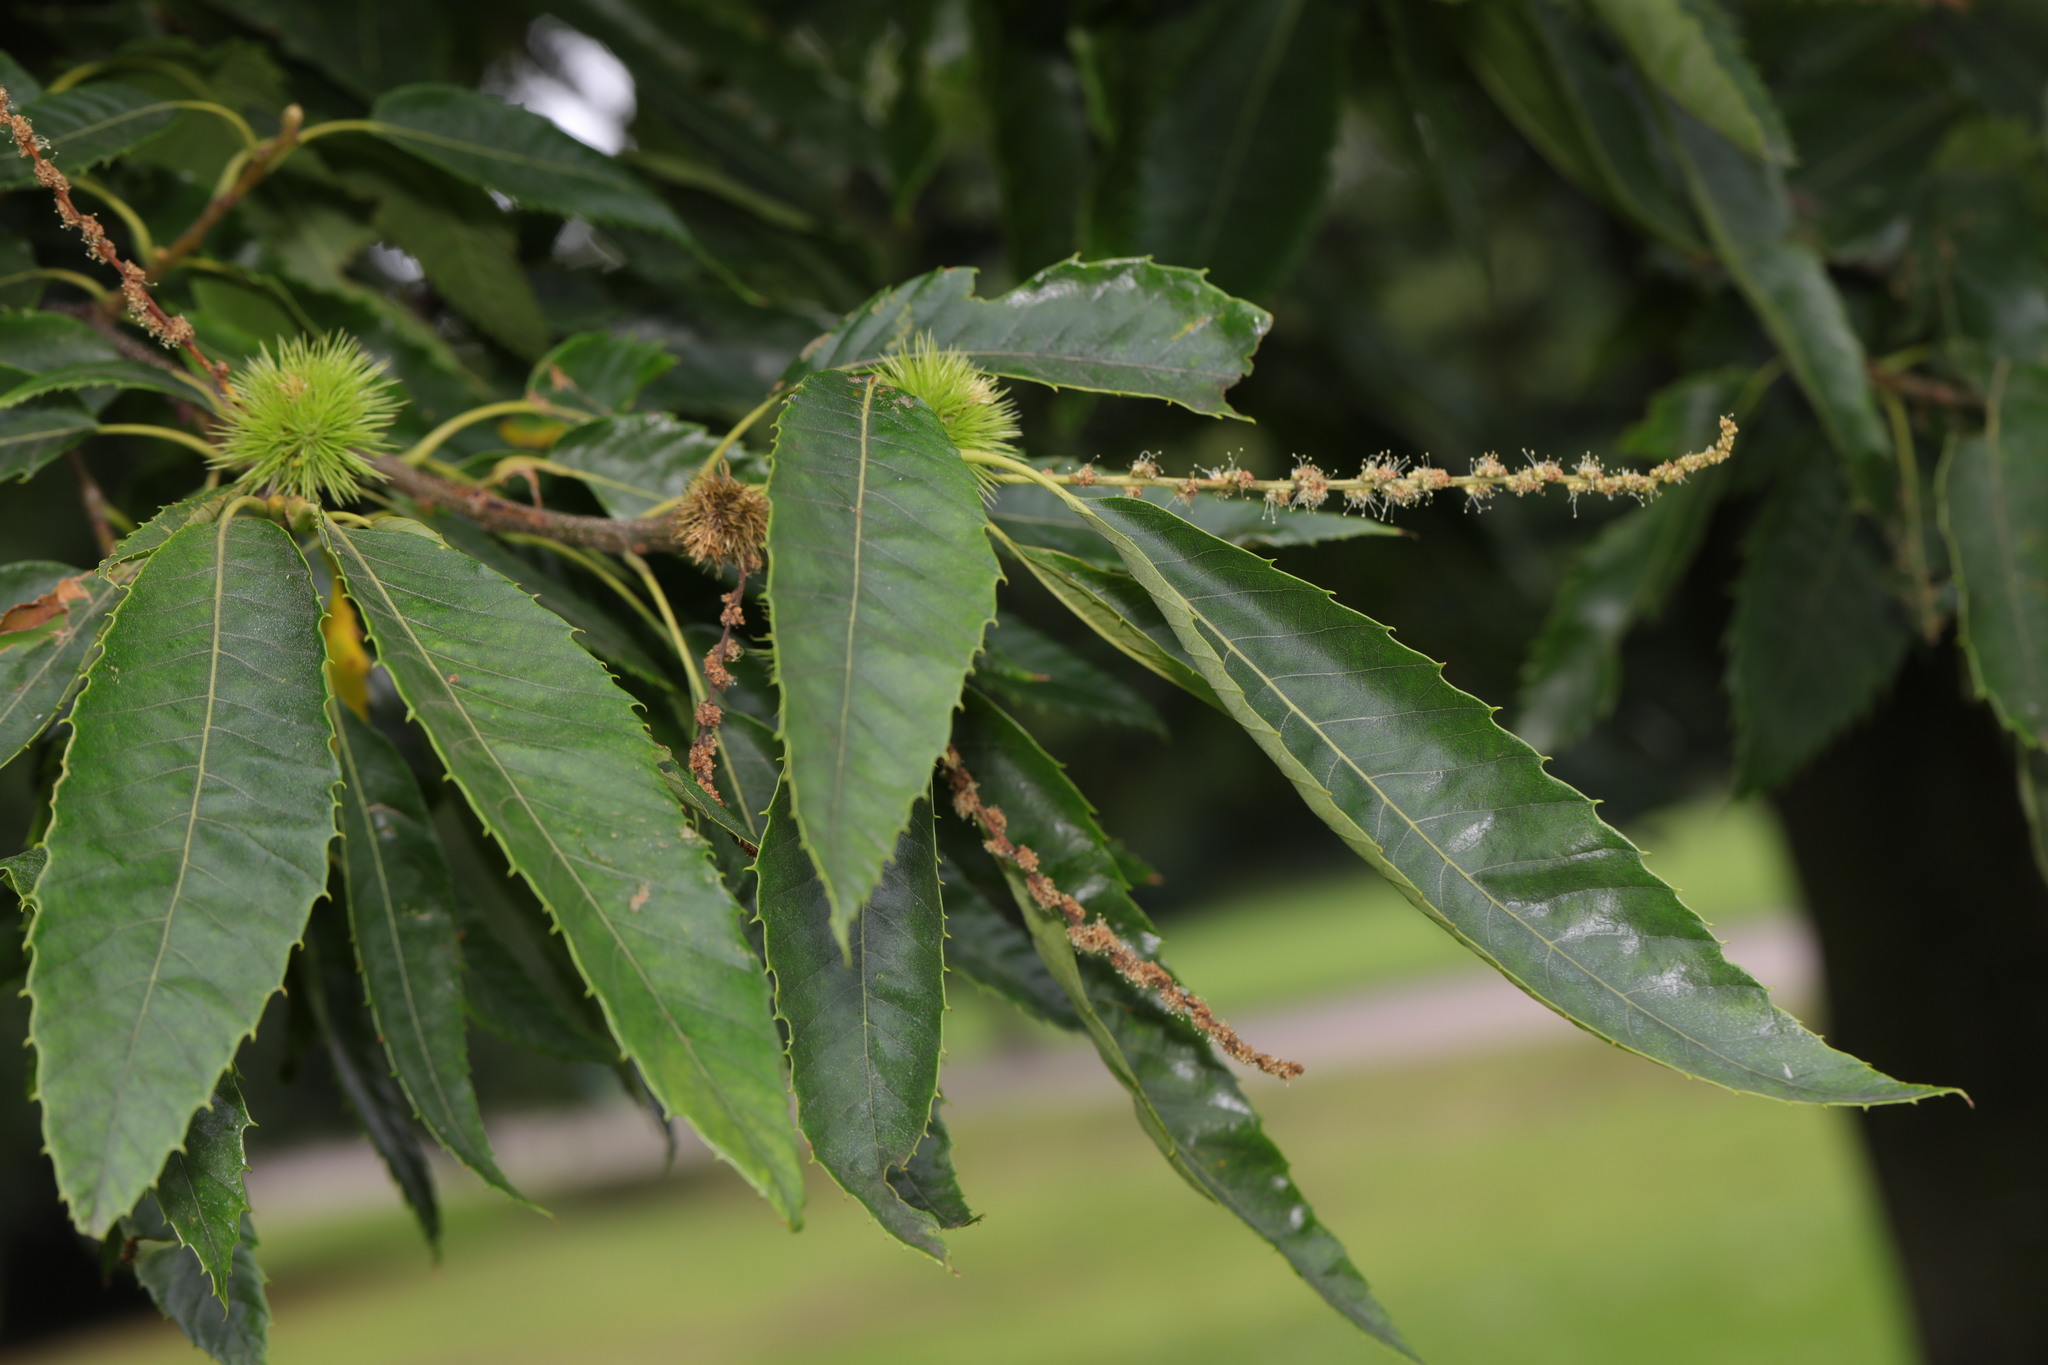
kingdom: Plantae
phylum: Tracheophyta
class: Magnoliopsida
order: Fagales
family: Fagaceae
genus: Castanea
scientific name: Castanea sativa
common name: Sweet chestnut
